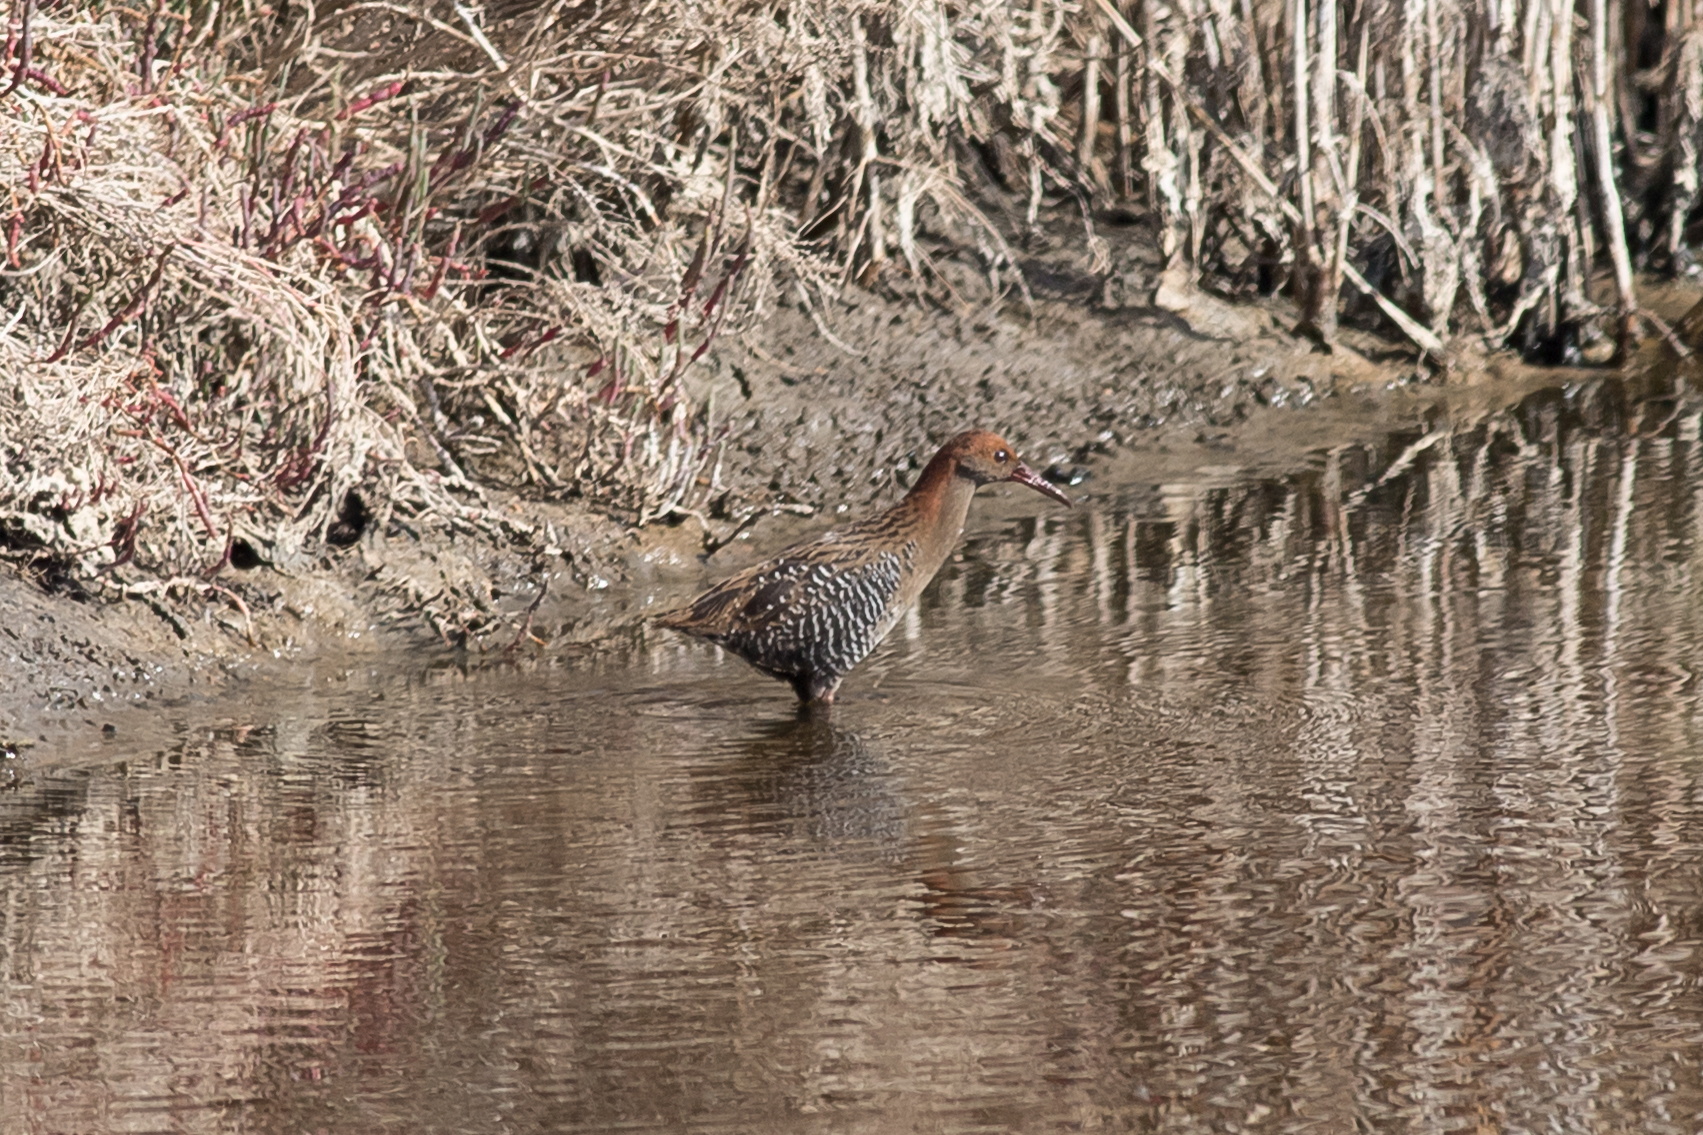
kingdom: Animalia
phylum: Chordata
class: Aves
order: Gruiformes
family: Rallidae
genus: Lewinia
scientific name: Lewinia pectoralis
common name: Lewin's rail
